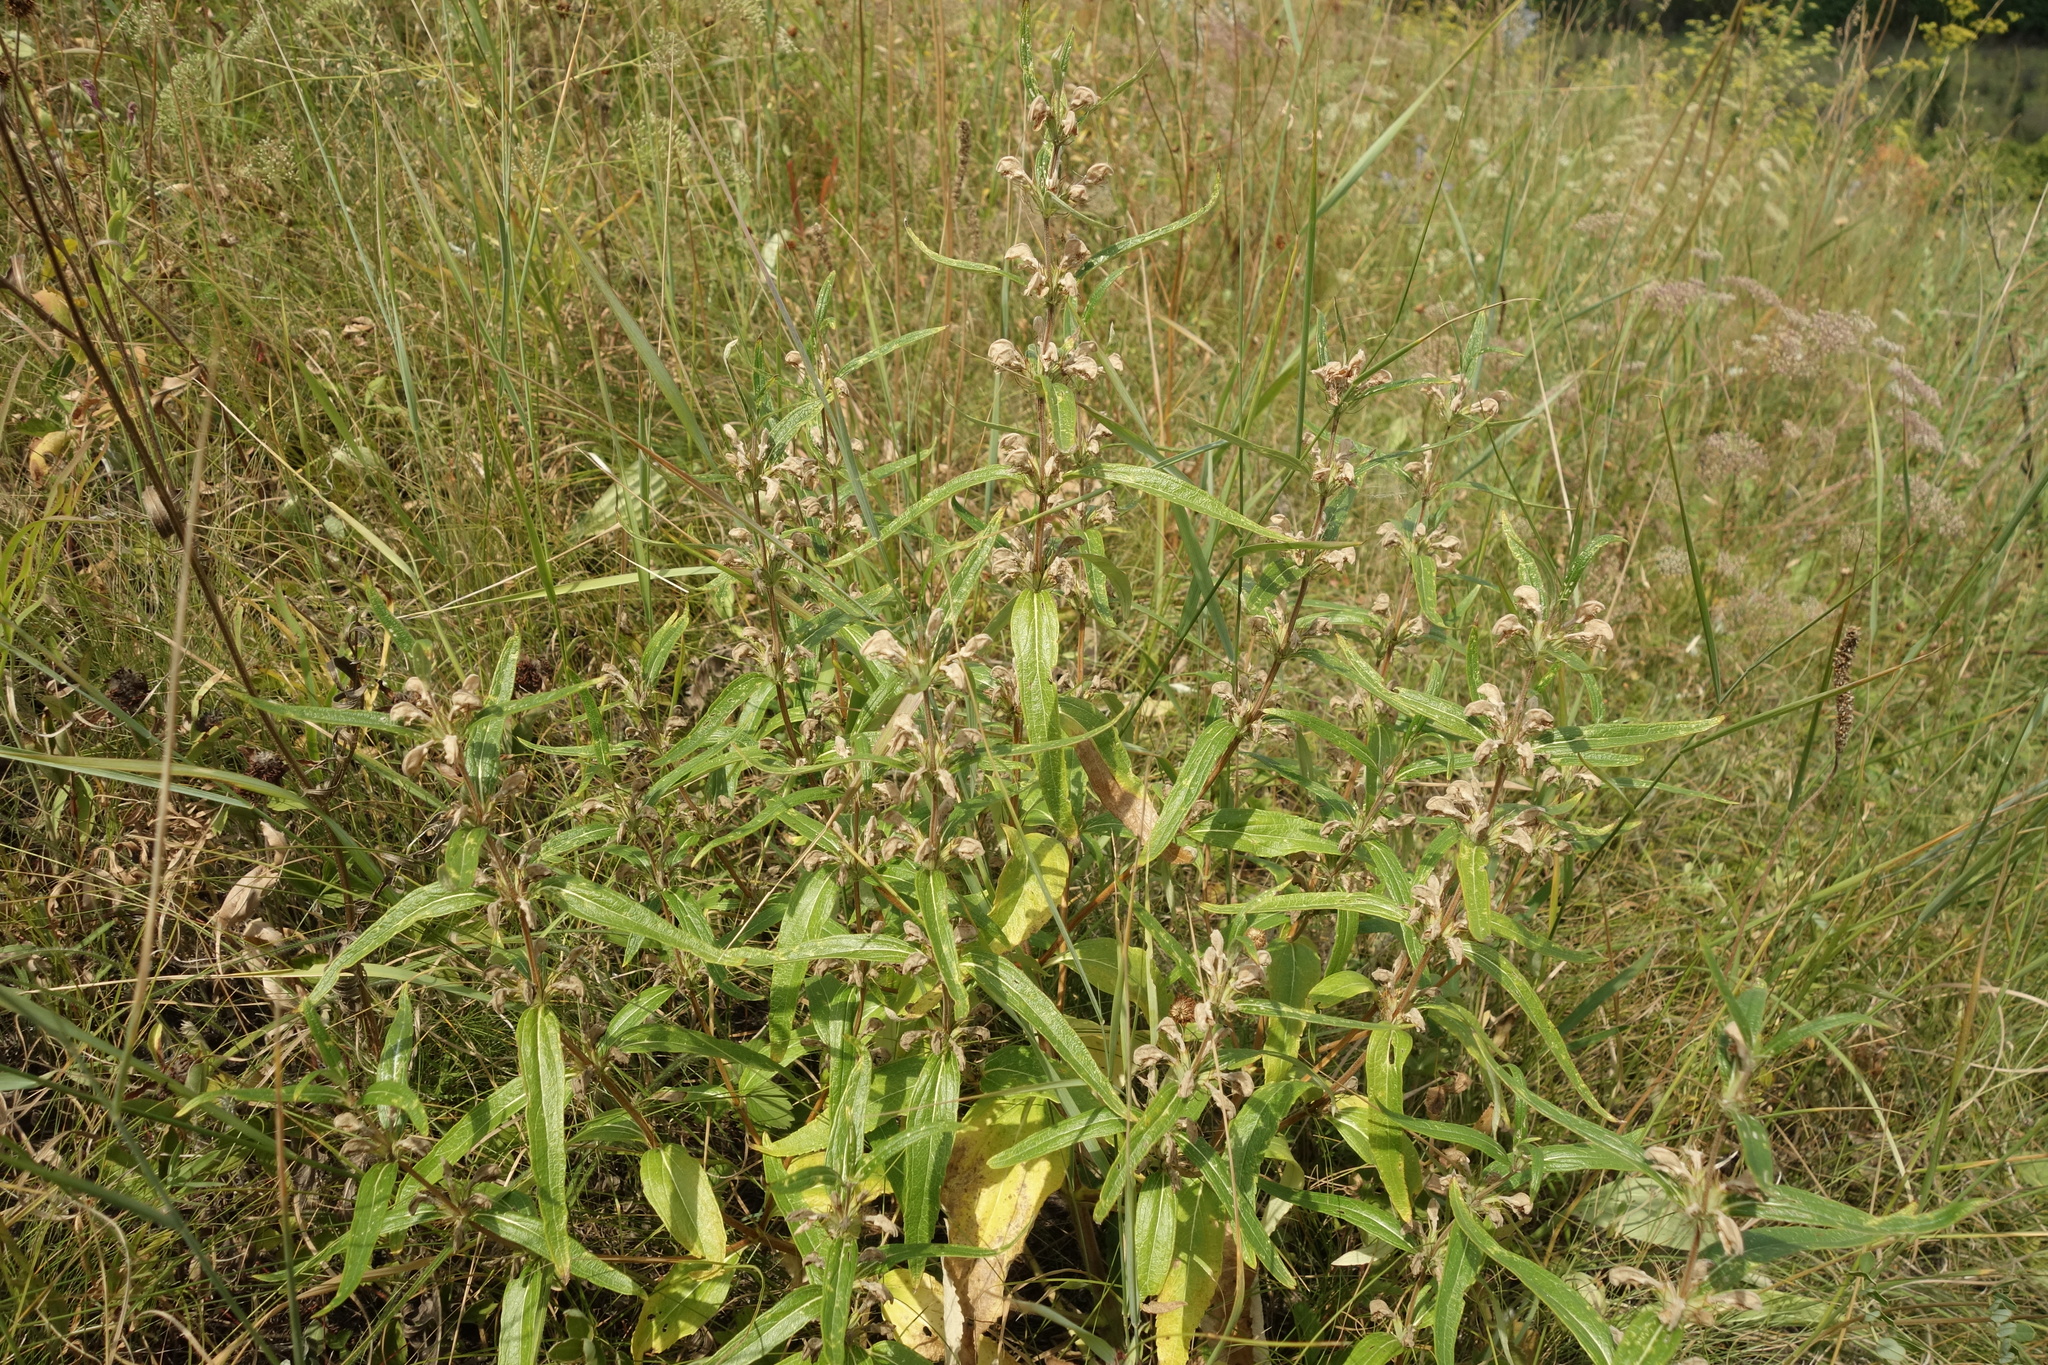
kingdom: Plantae
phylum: Tracheophyta
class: Magnoliopsida
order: Lamiales
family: Lamiaceae
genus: Phlomis
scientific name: Phlomis herba-venti
